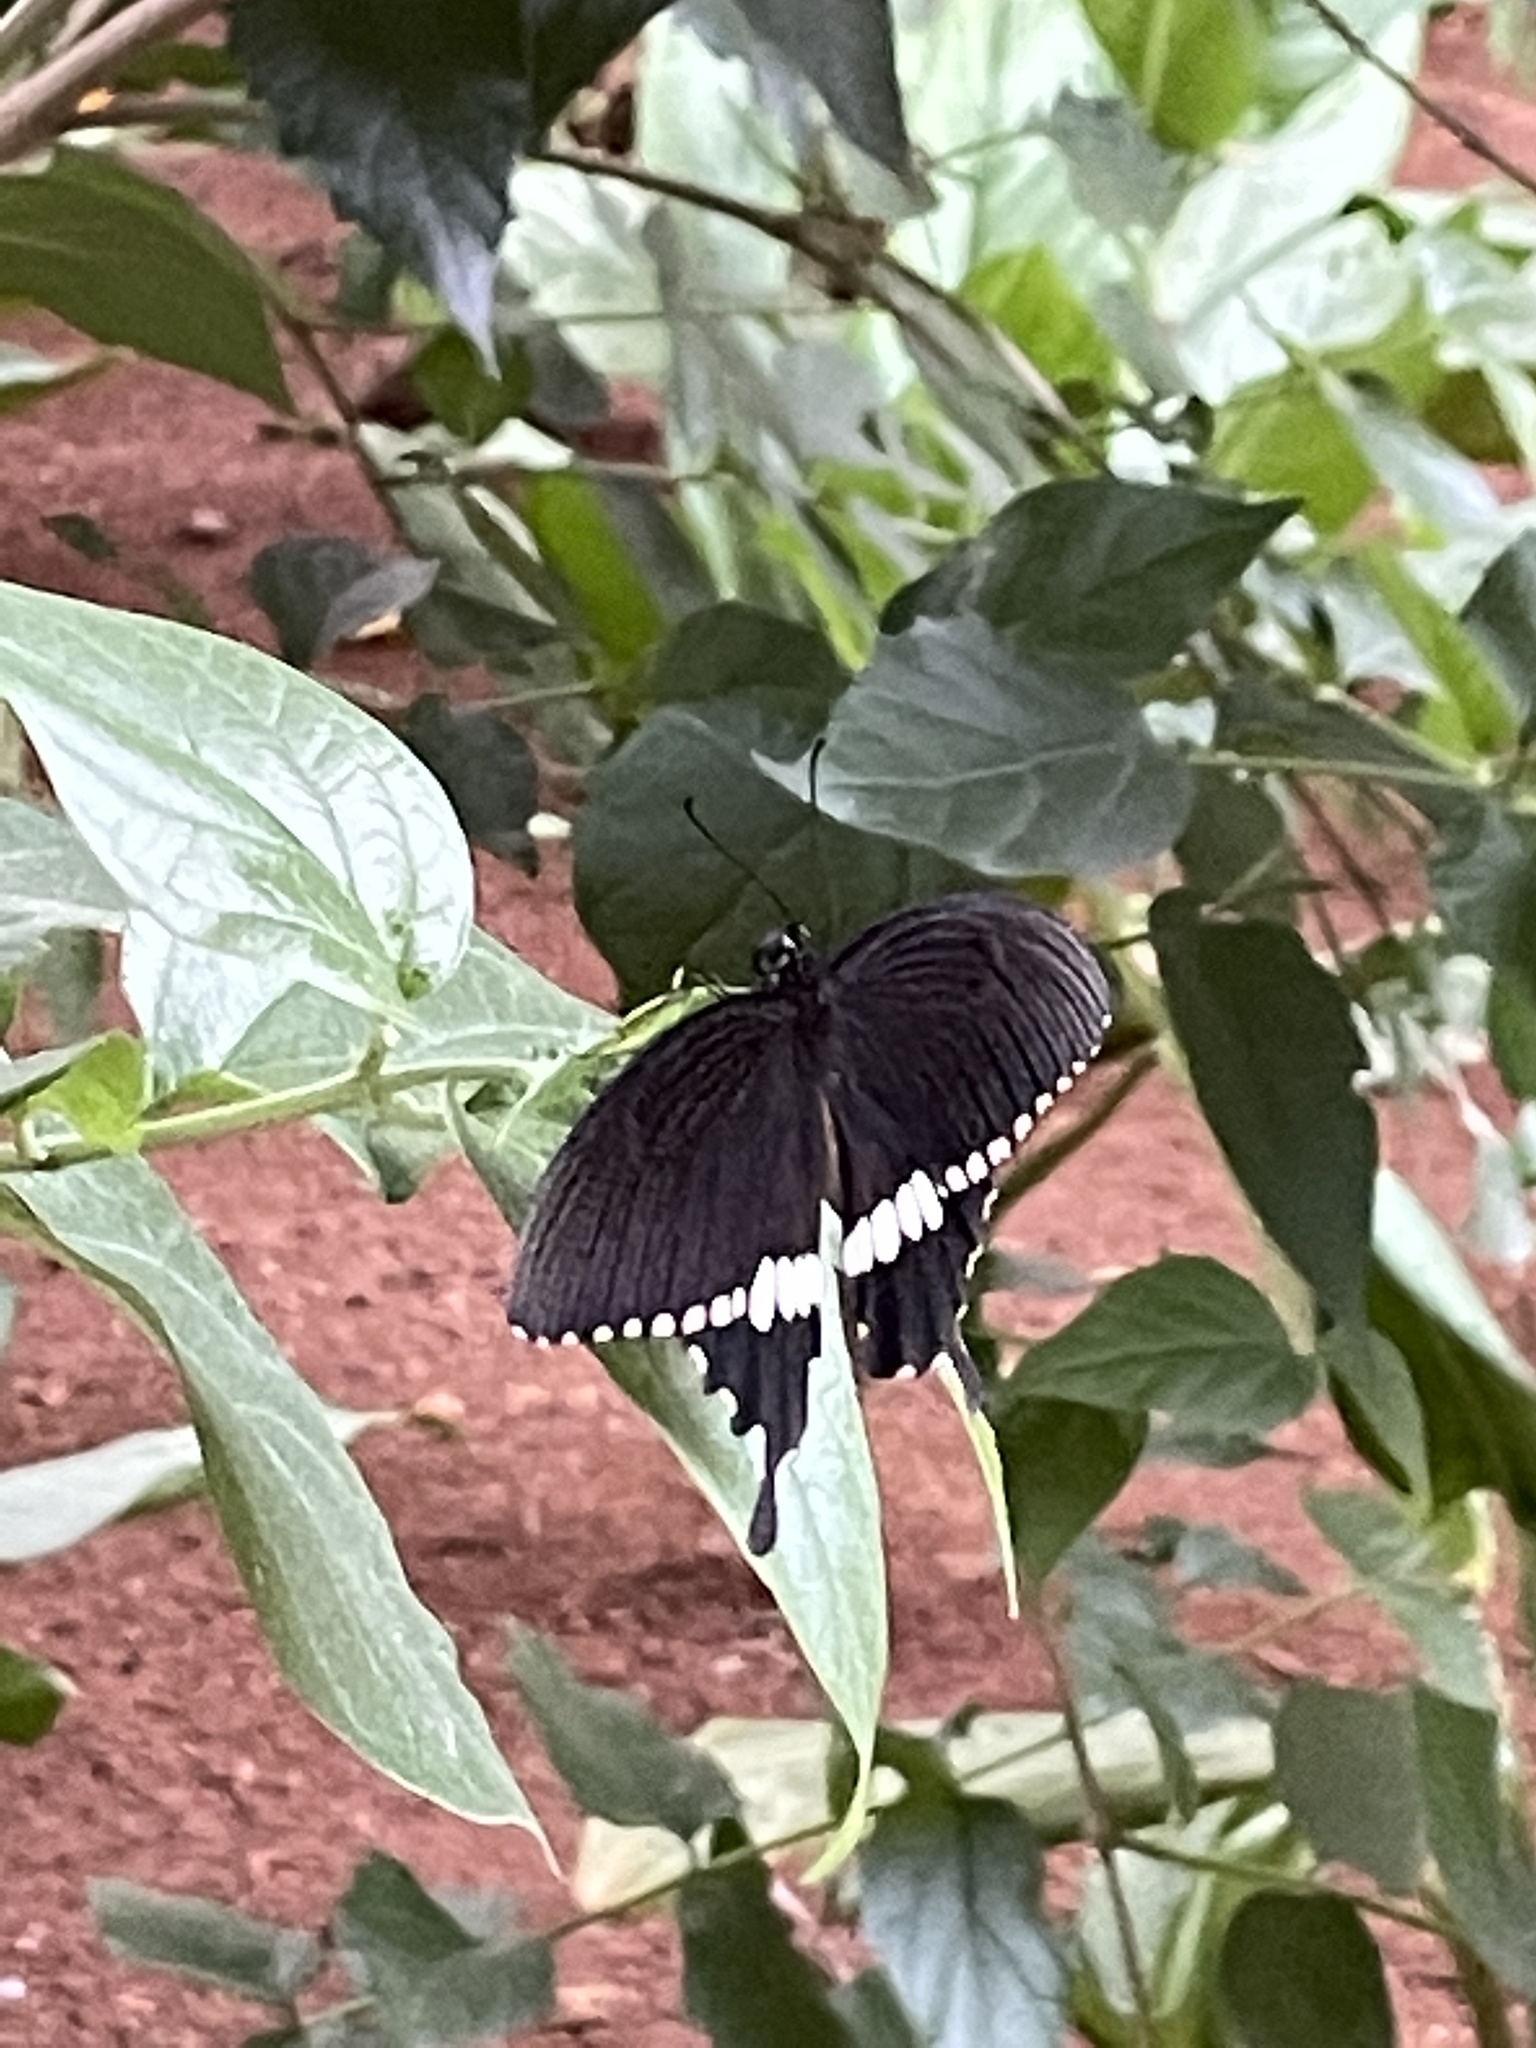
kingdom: Animalia
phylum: Arthropoda
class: Insecta
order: Lepidoptera
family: Papilionidae
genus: Papilio
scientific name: Papilio polytes
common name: Common mormon
